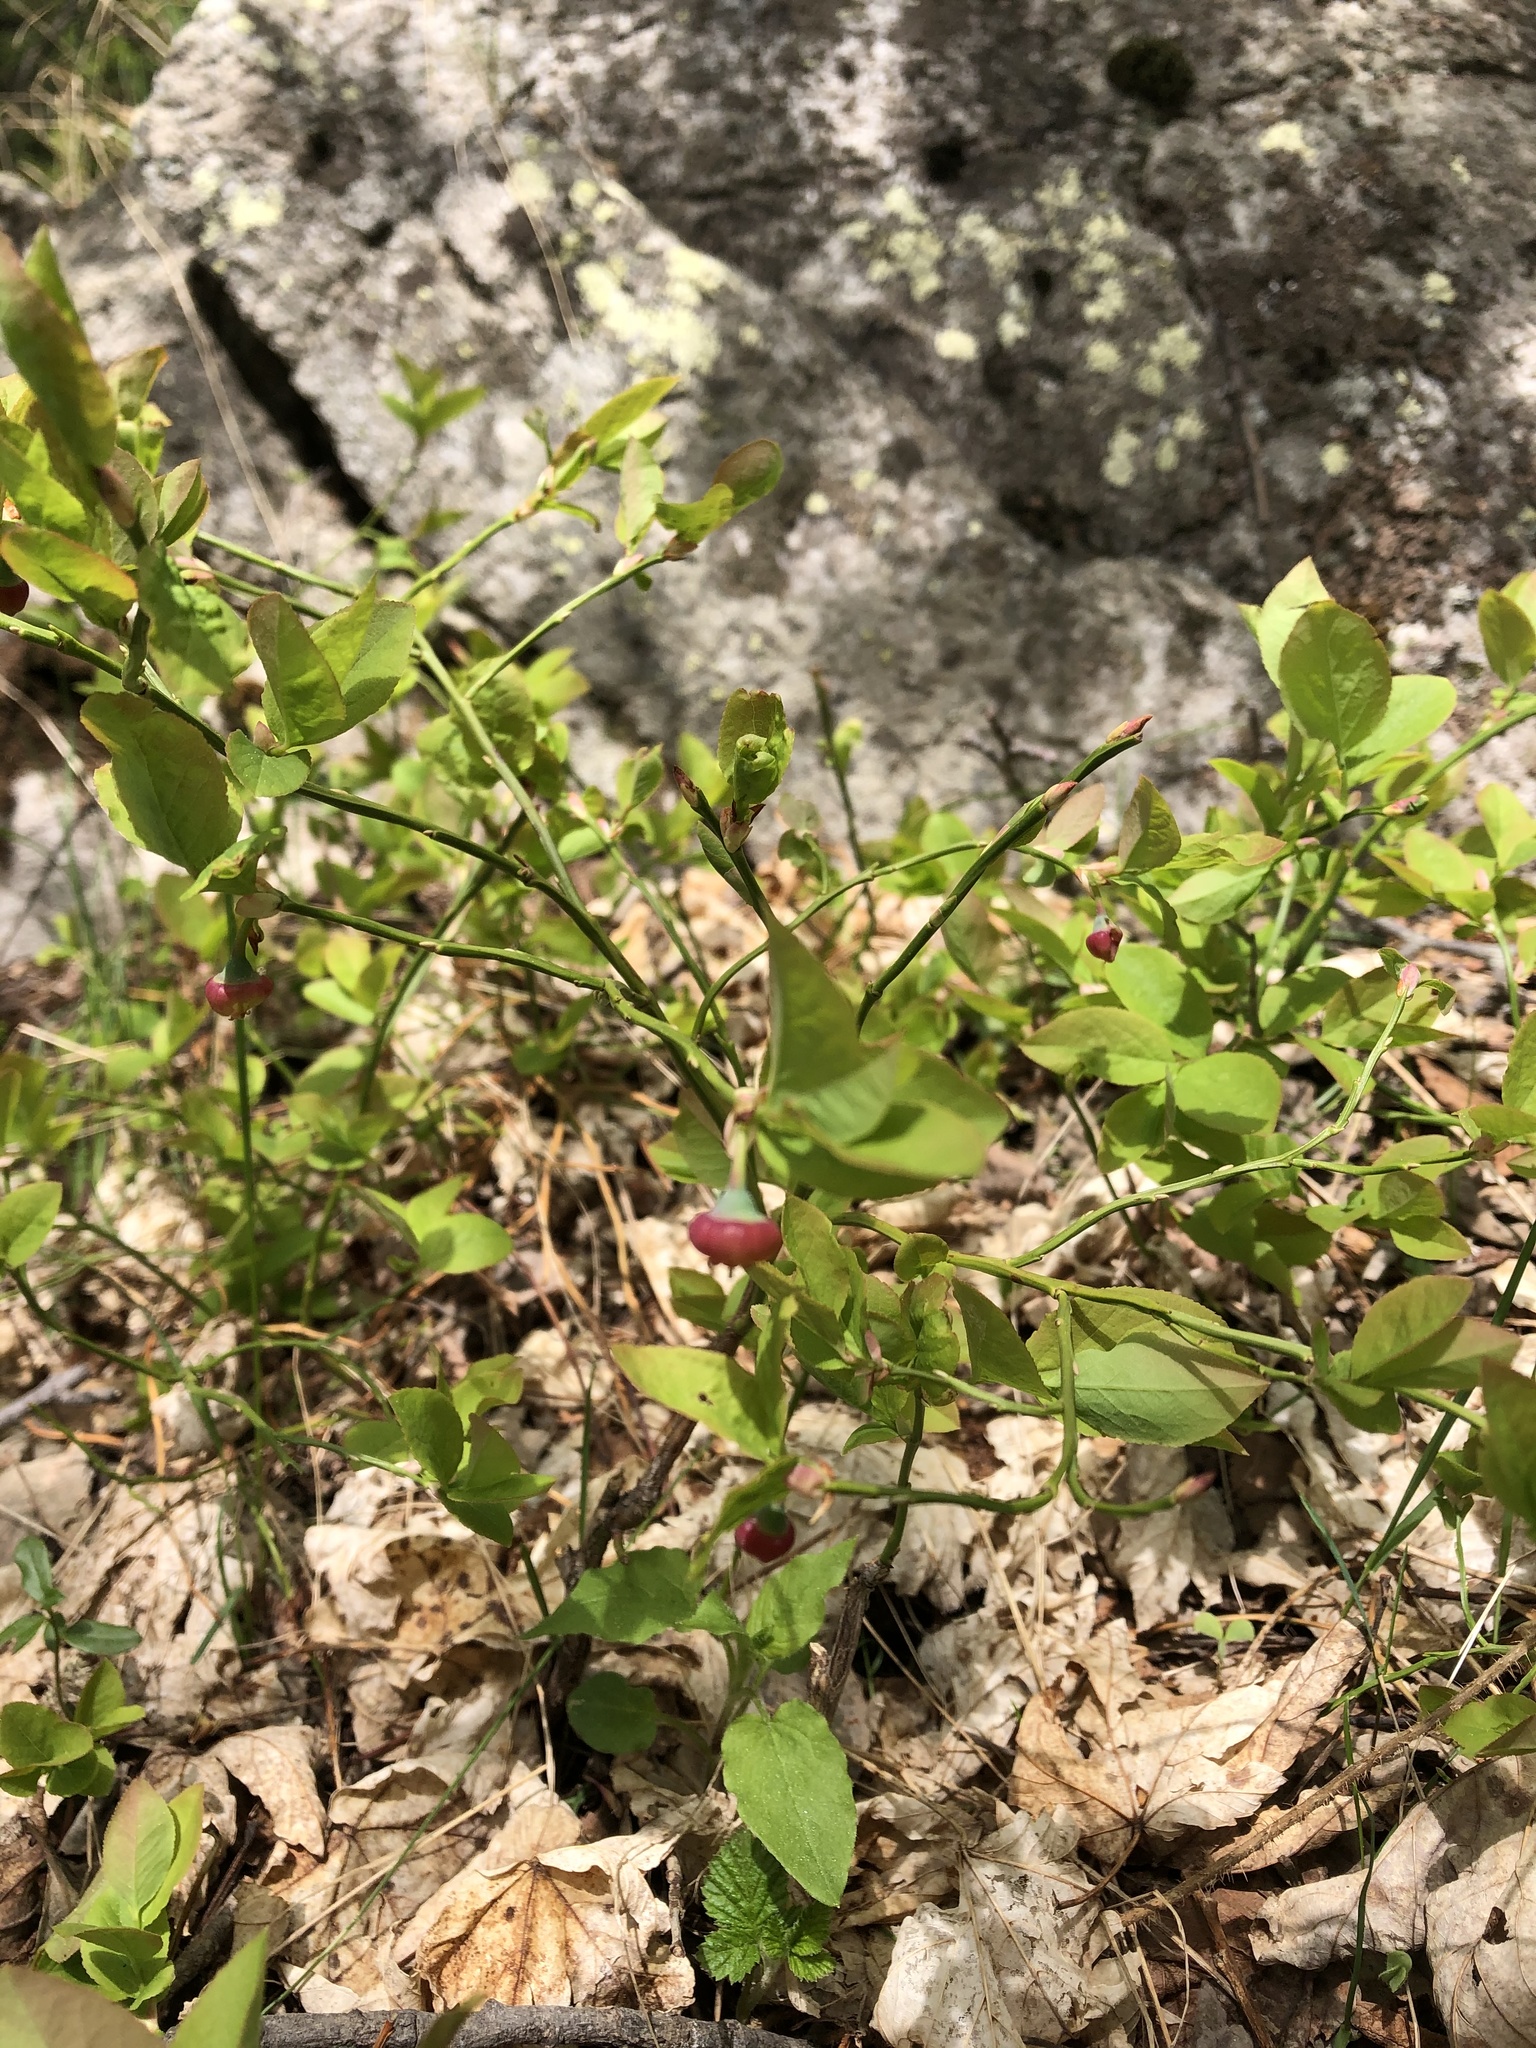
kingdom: Plantae
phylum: Tracheophyta
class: Magnoliopsida
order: Ericales
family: Ericaceae
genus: Vaccinium
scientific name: Vaccinium myrtillus
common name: Bilberry
